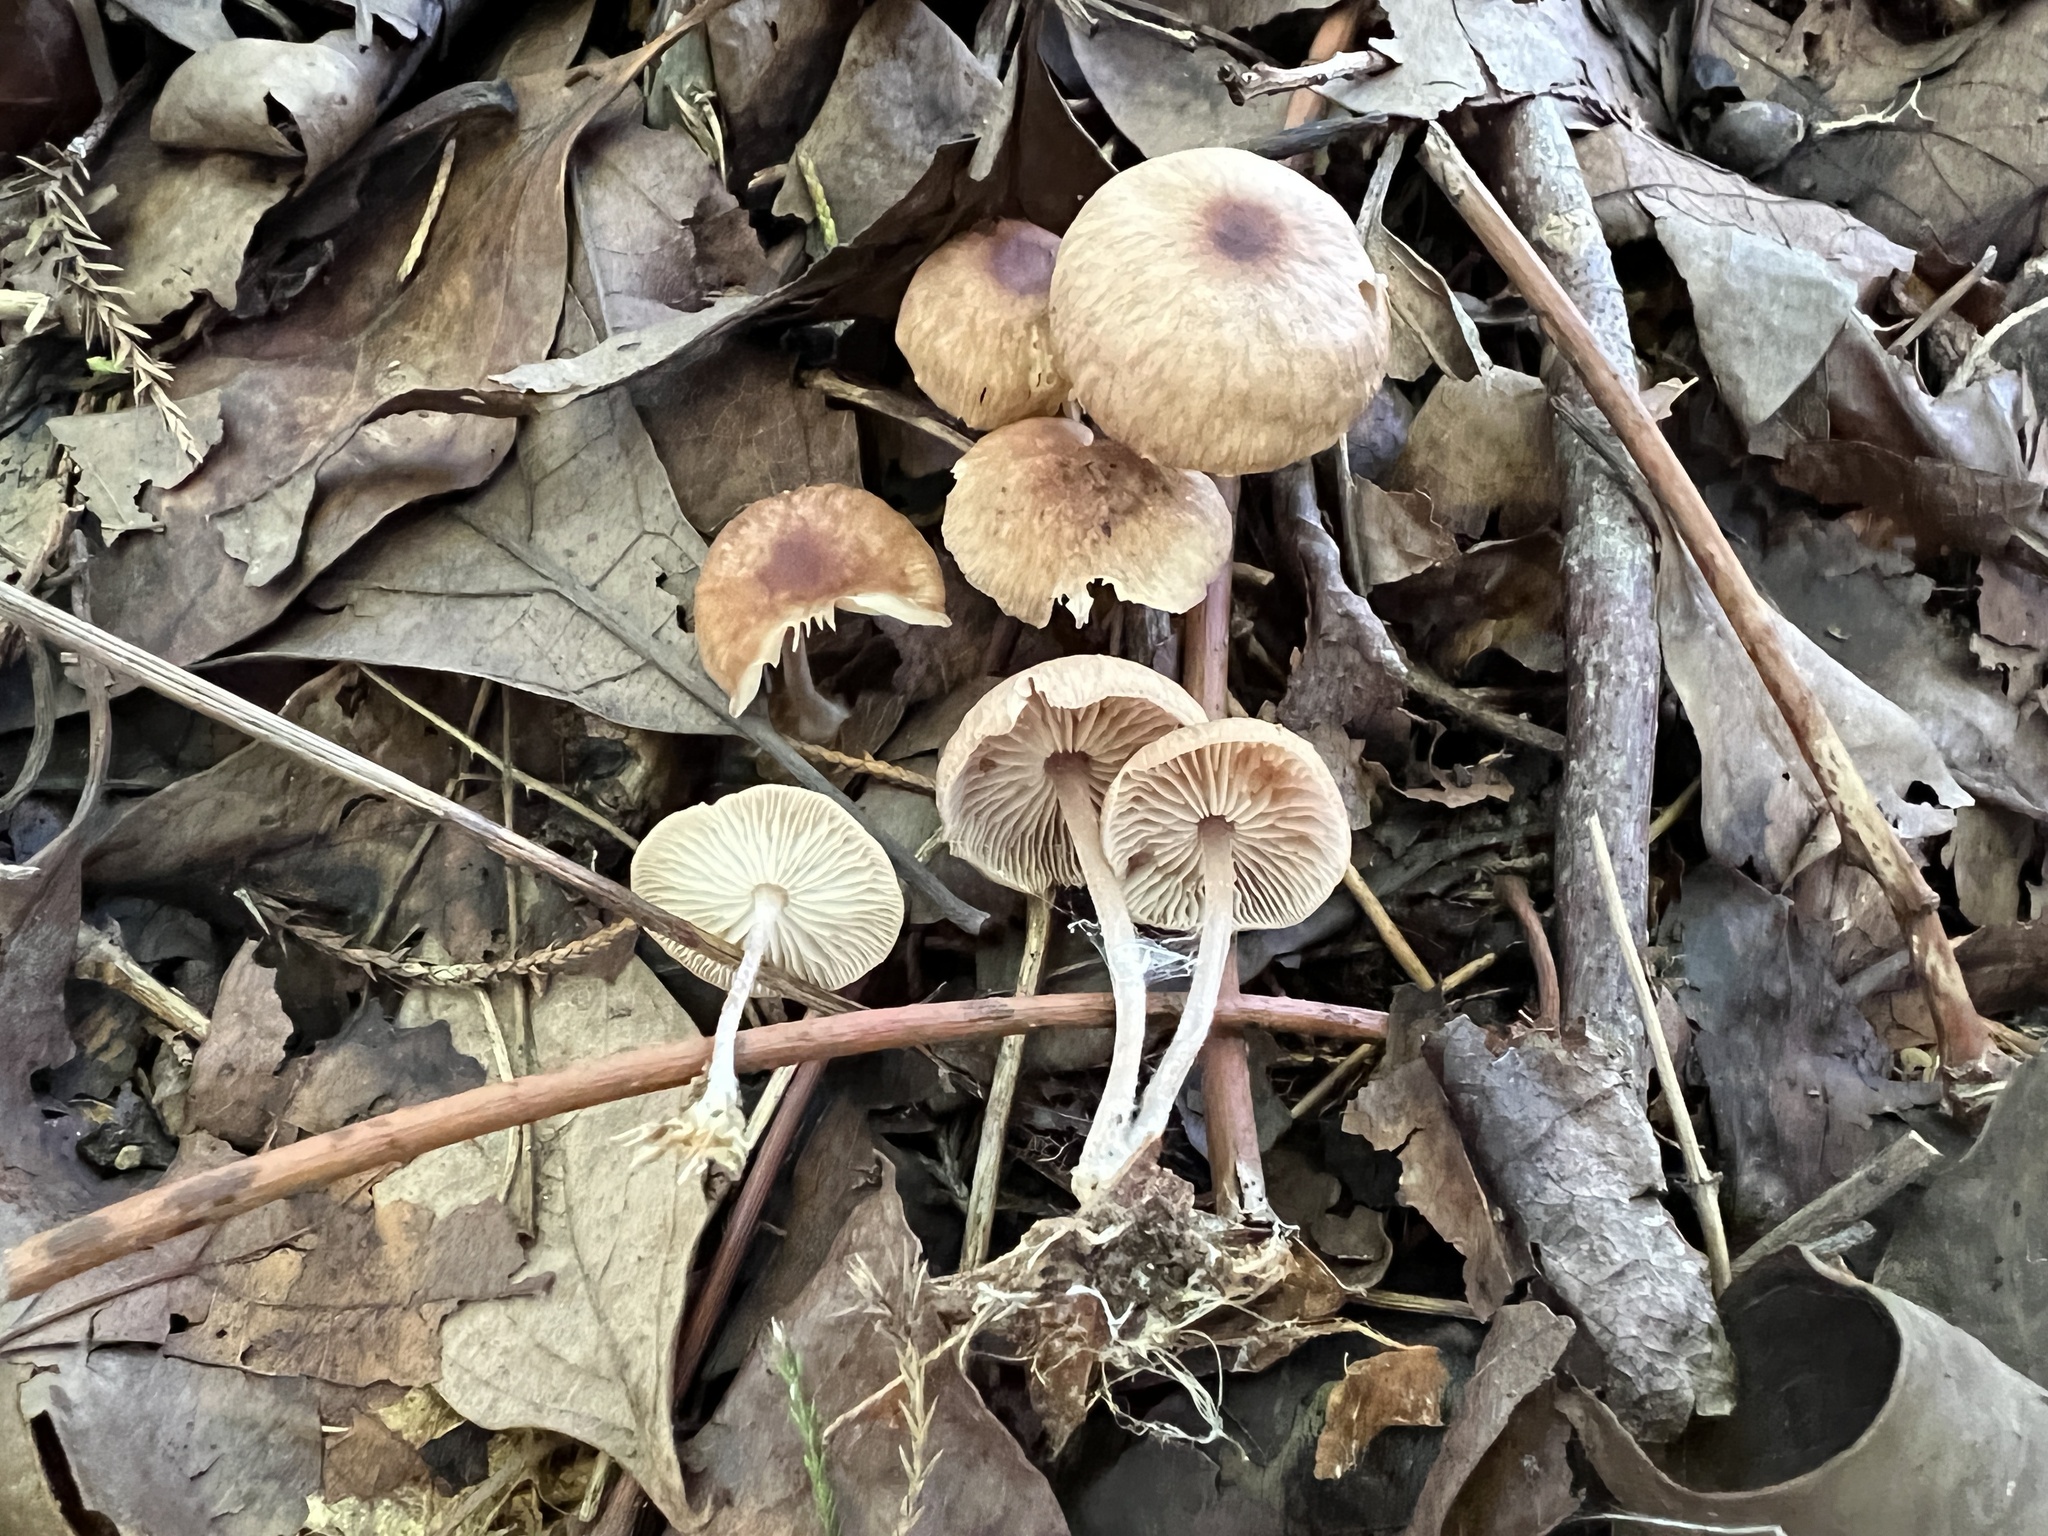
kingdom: Fungi
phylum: Basidiomycota
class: Agaricomycetes
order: Agaricales
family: Omphalotaceae
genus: Gymnopus
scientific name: Gymnopus barbipes
